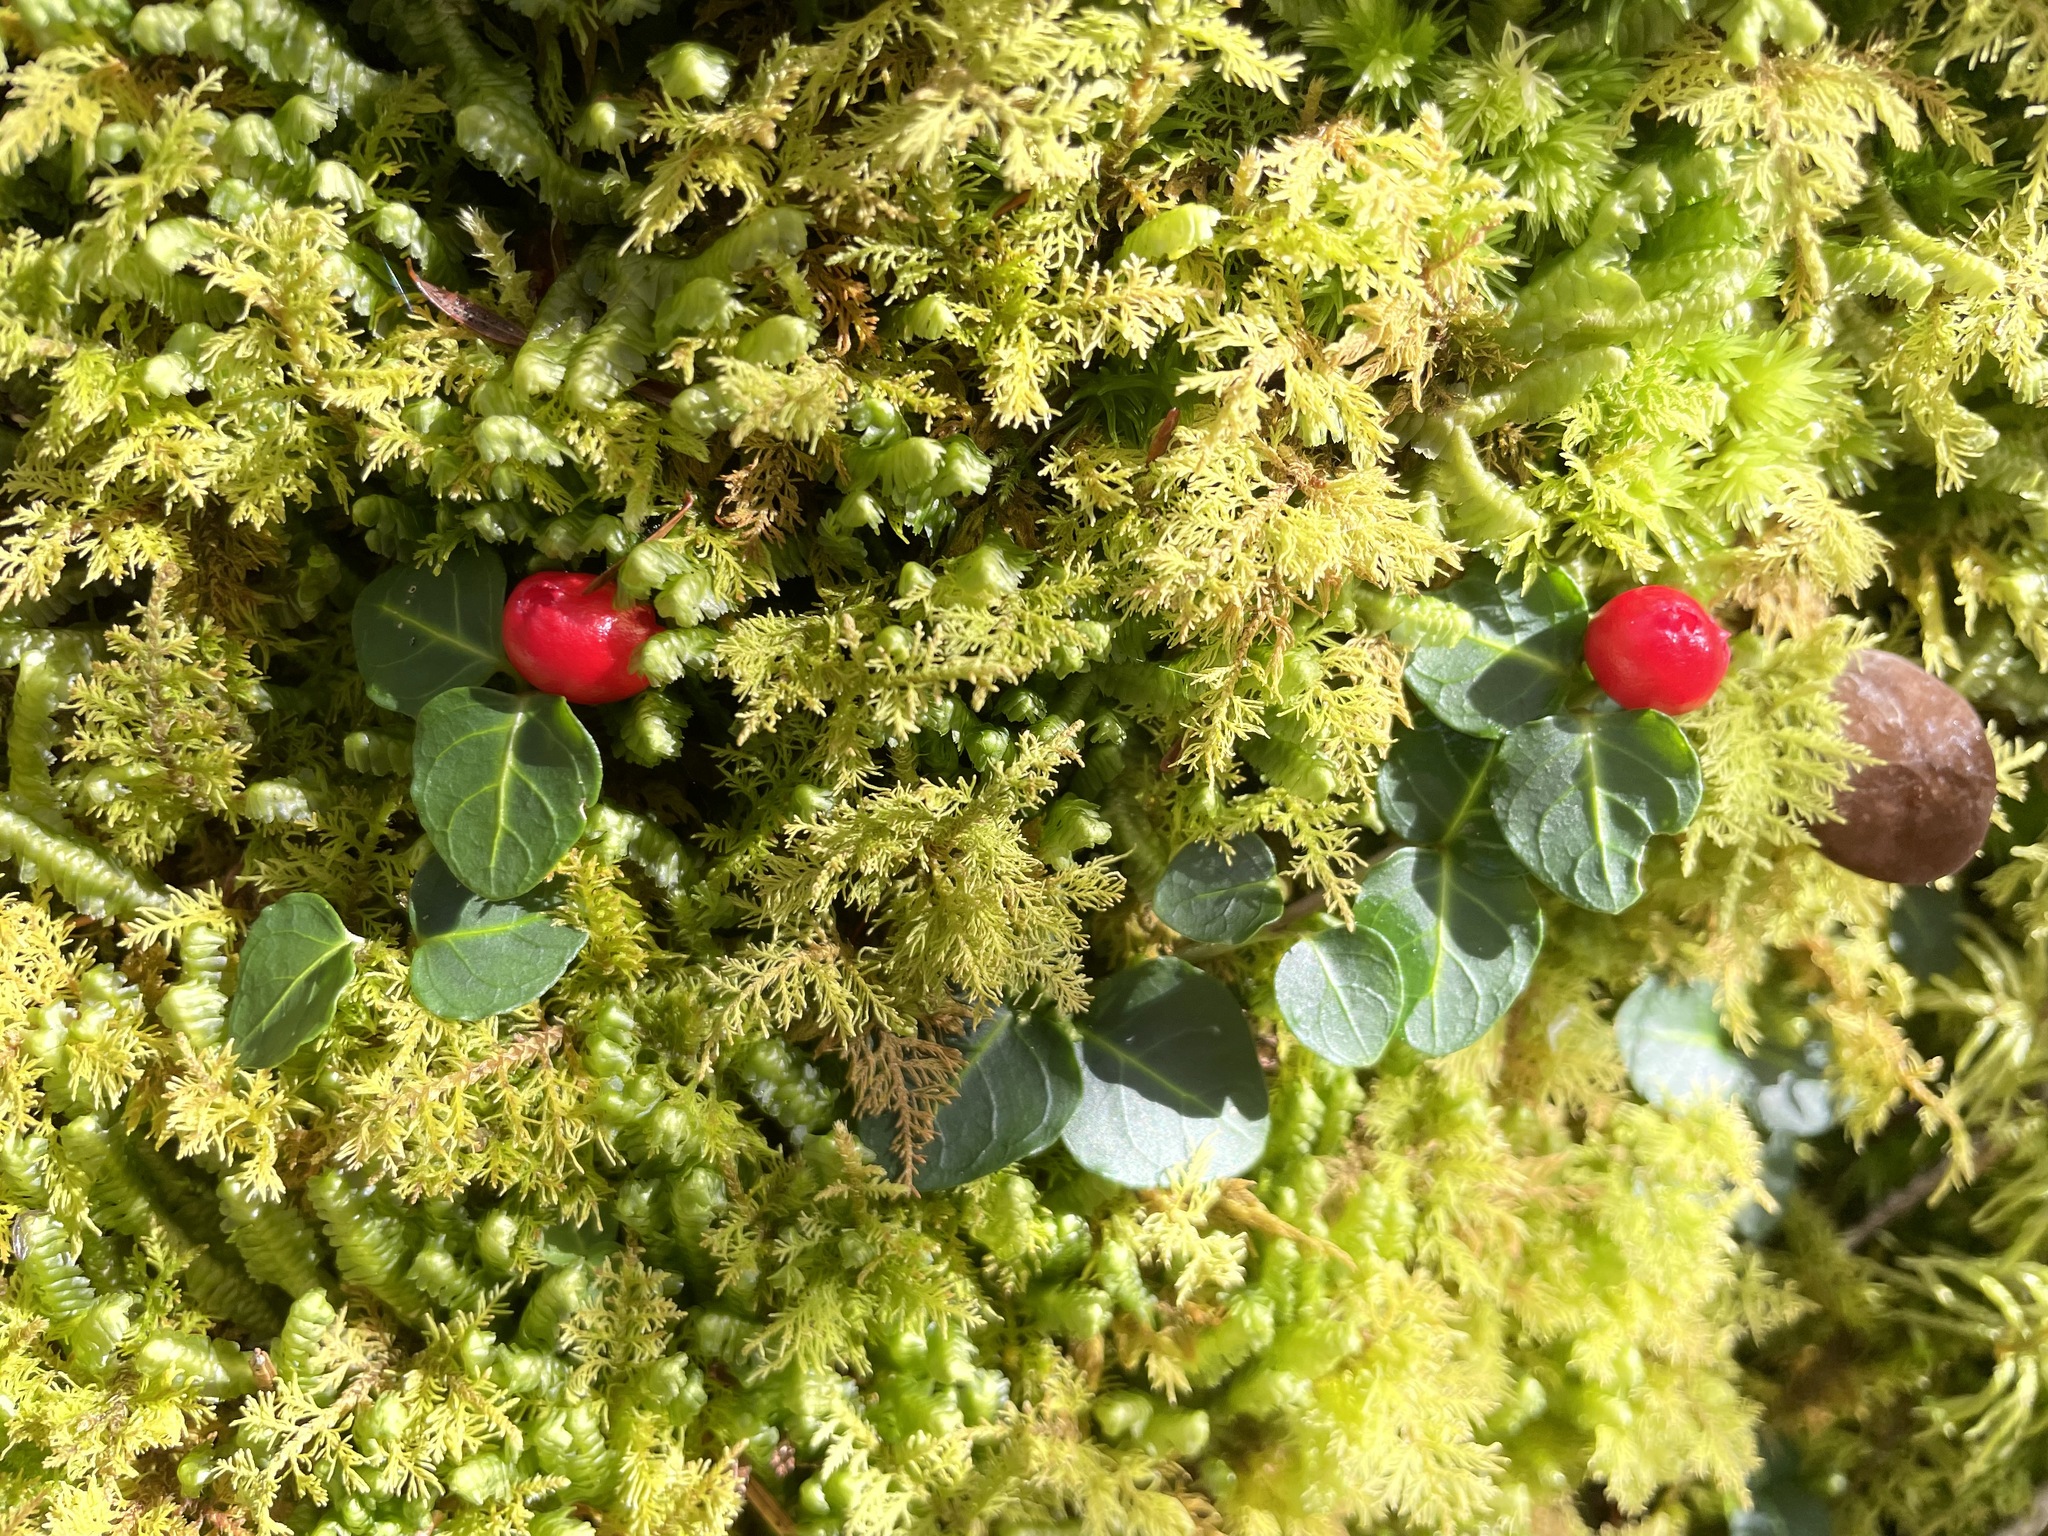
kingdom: Plantae
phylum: Tracheophyta
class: Magnoliopsida
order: Gentianales
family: Rubiaceae
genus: Mitchella
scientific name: Mitchella repens
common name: Partridge-berry
